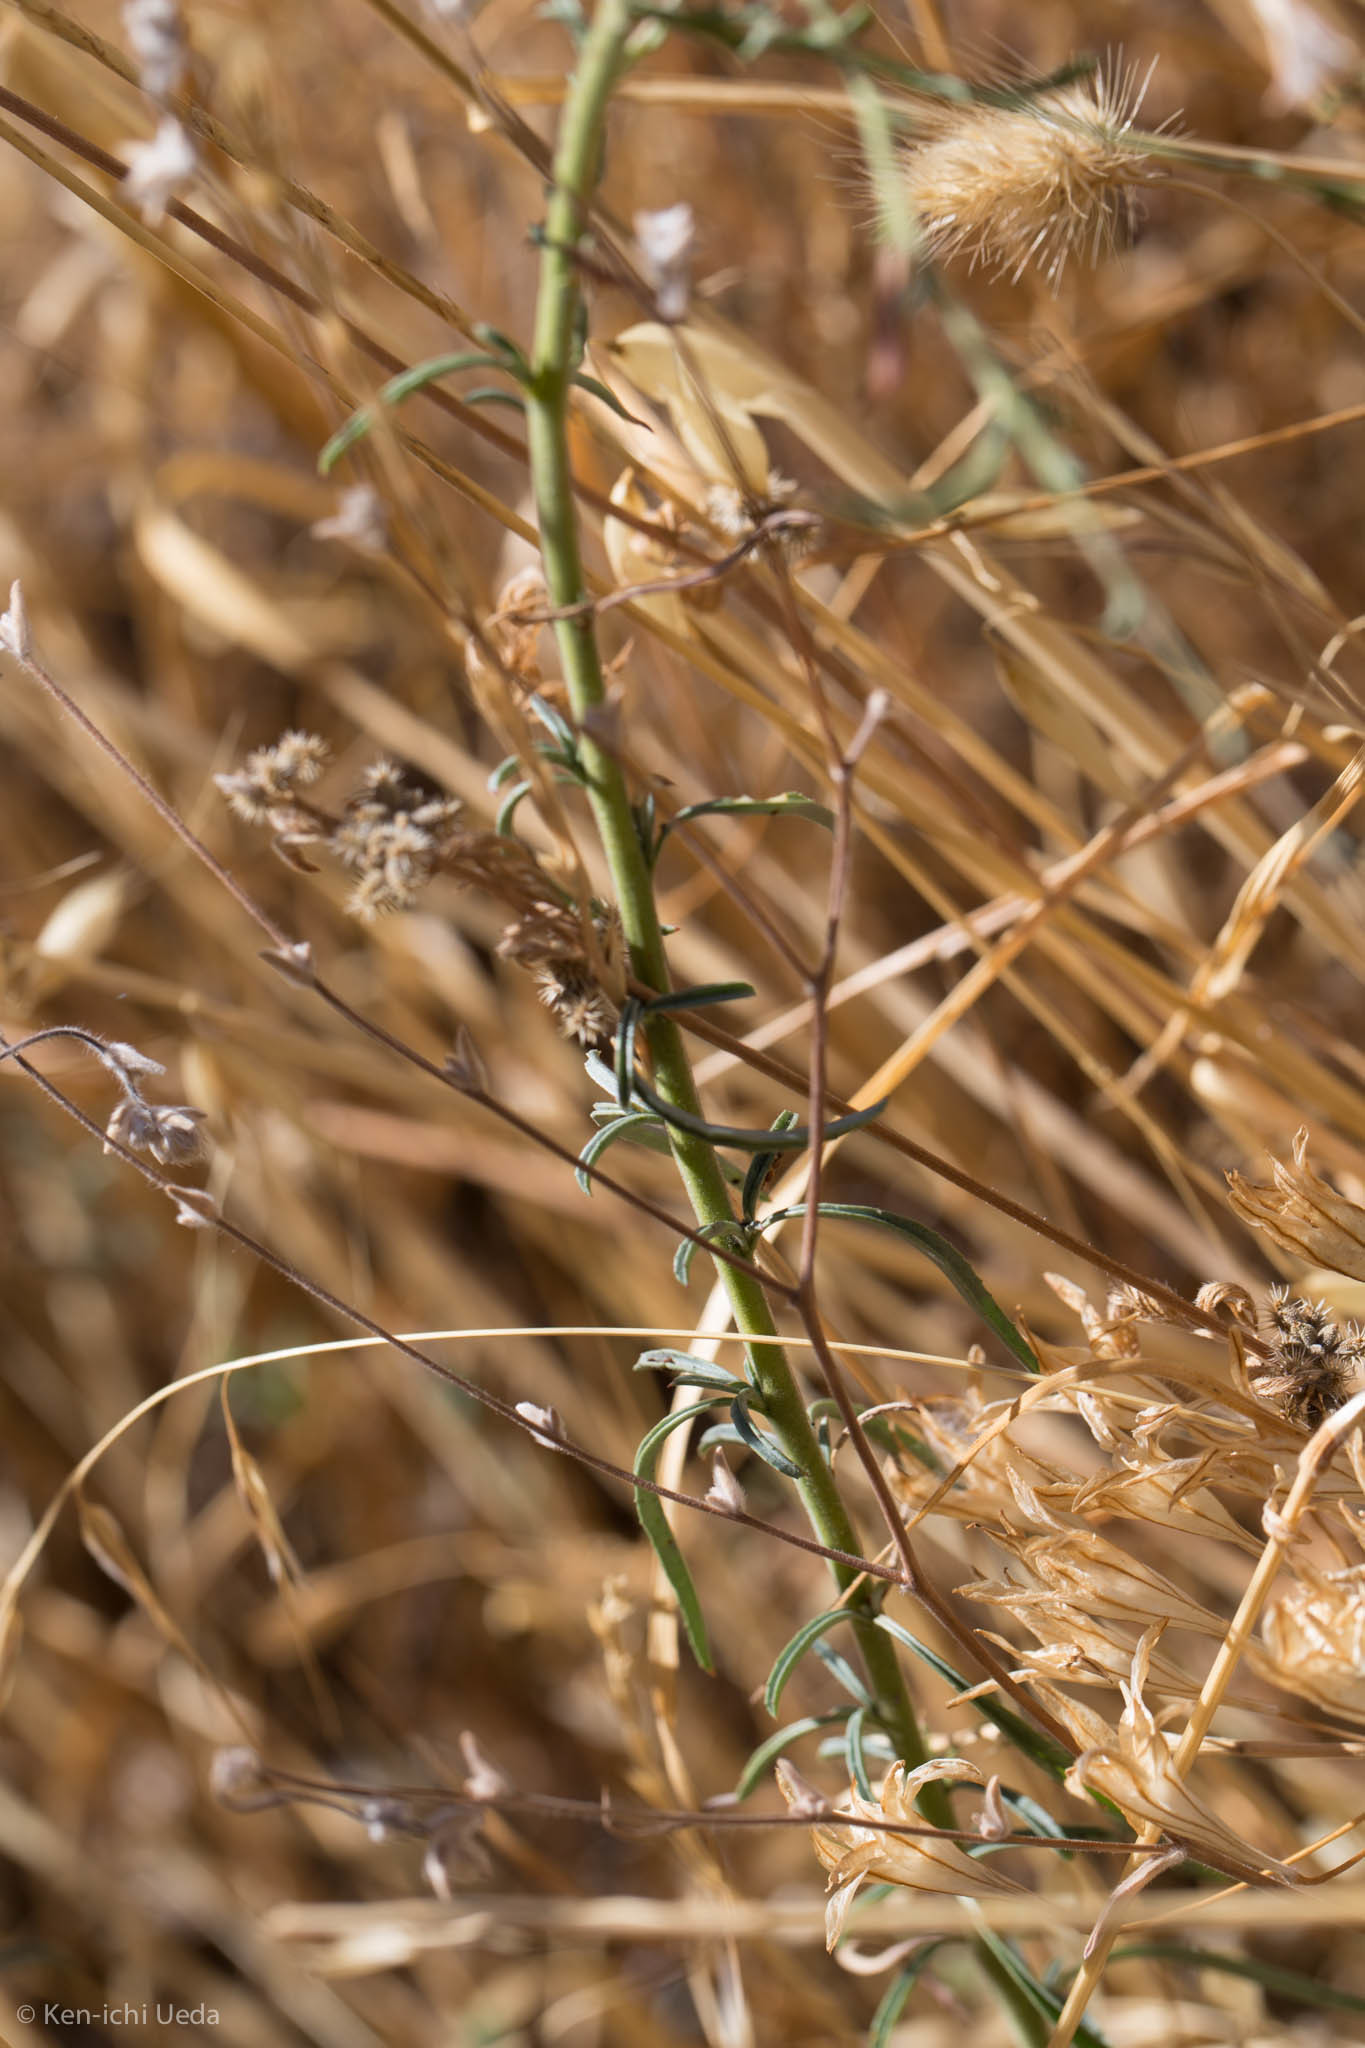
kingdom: Plantae
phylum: Tracheophyta
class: Magnoliopsida
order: Myrtales
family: Onagraceae
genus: Epilobium
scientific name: Epilobium brachycarpum
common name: Annual willowherb
